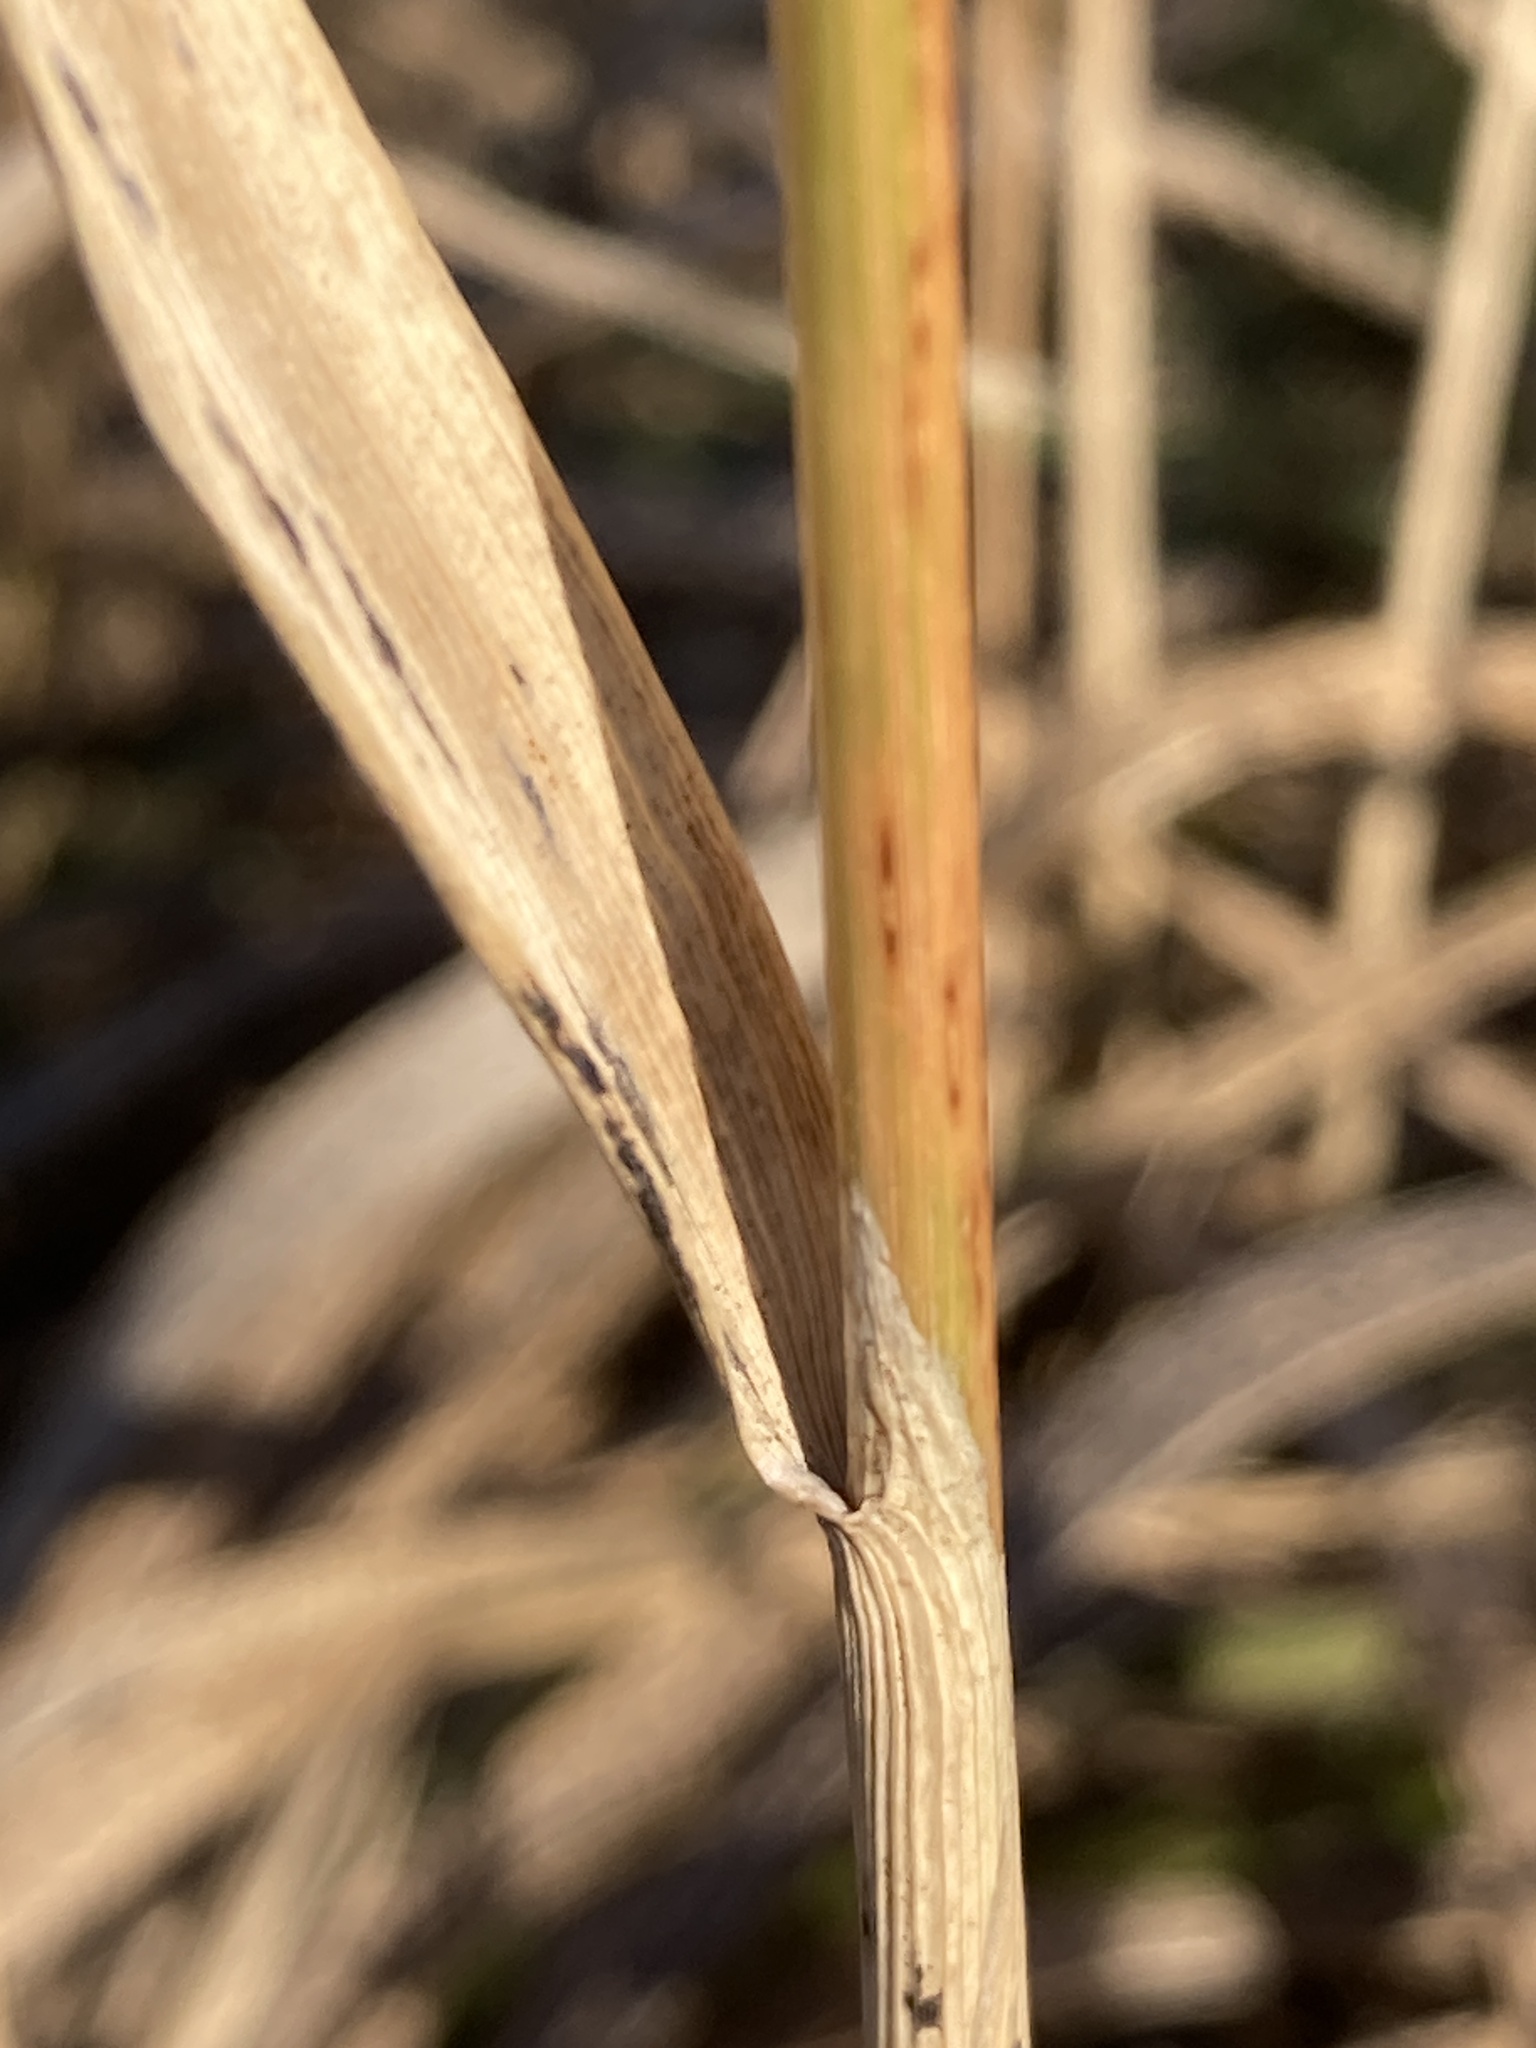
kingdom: Plantae
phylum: Tracheophyta
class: Liliopsida
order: Poales
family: Poaceae
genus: Calamagrostis
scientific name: Calamagrostis epigejos
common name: Wood small-reed
